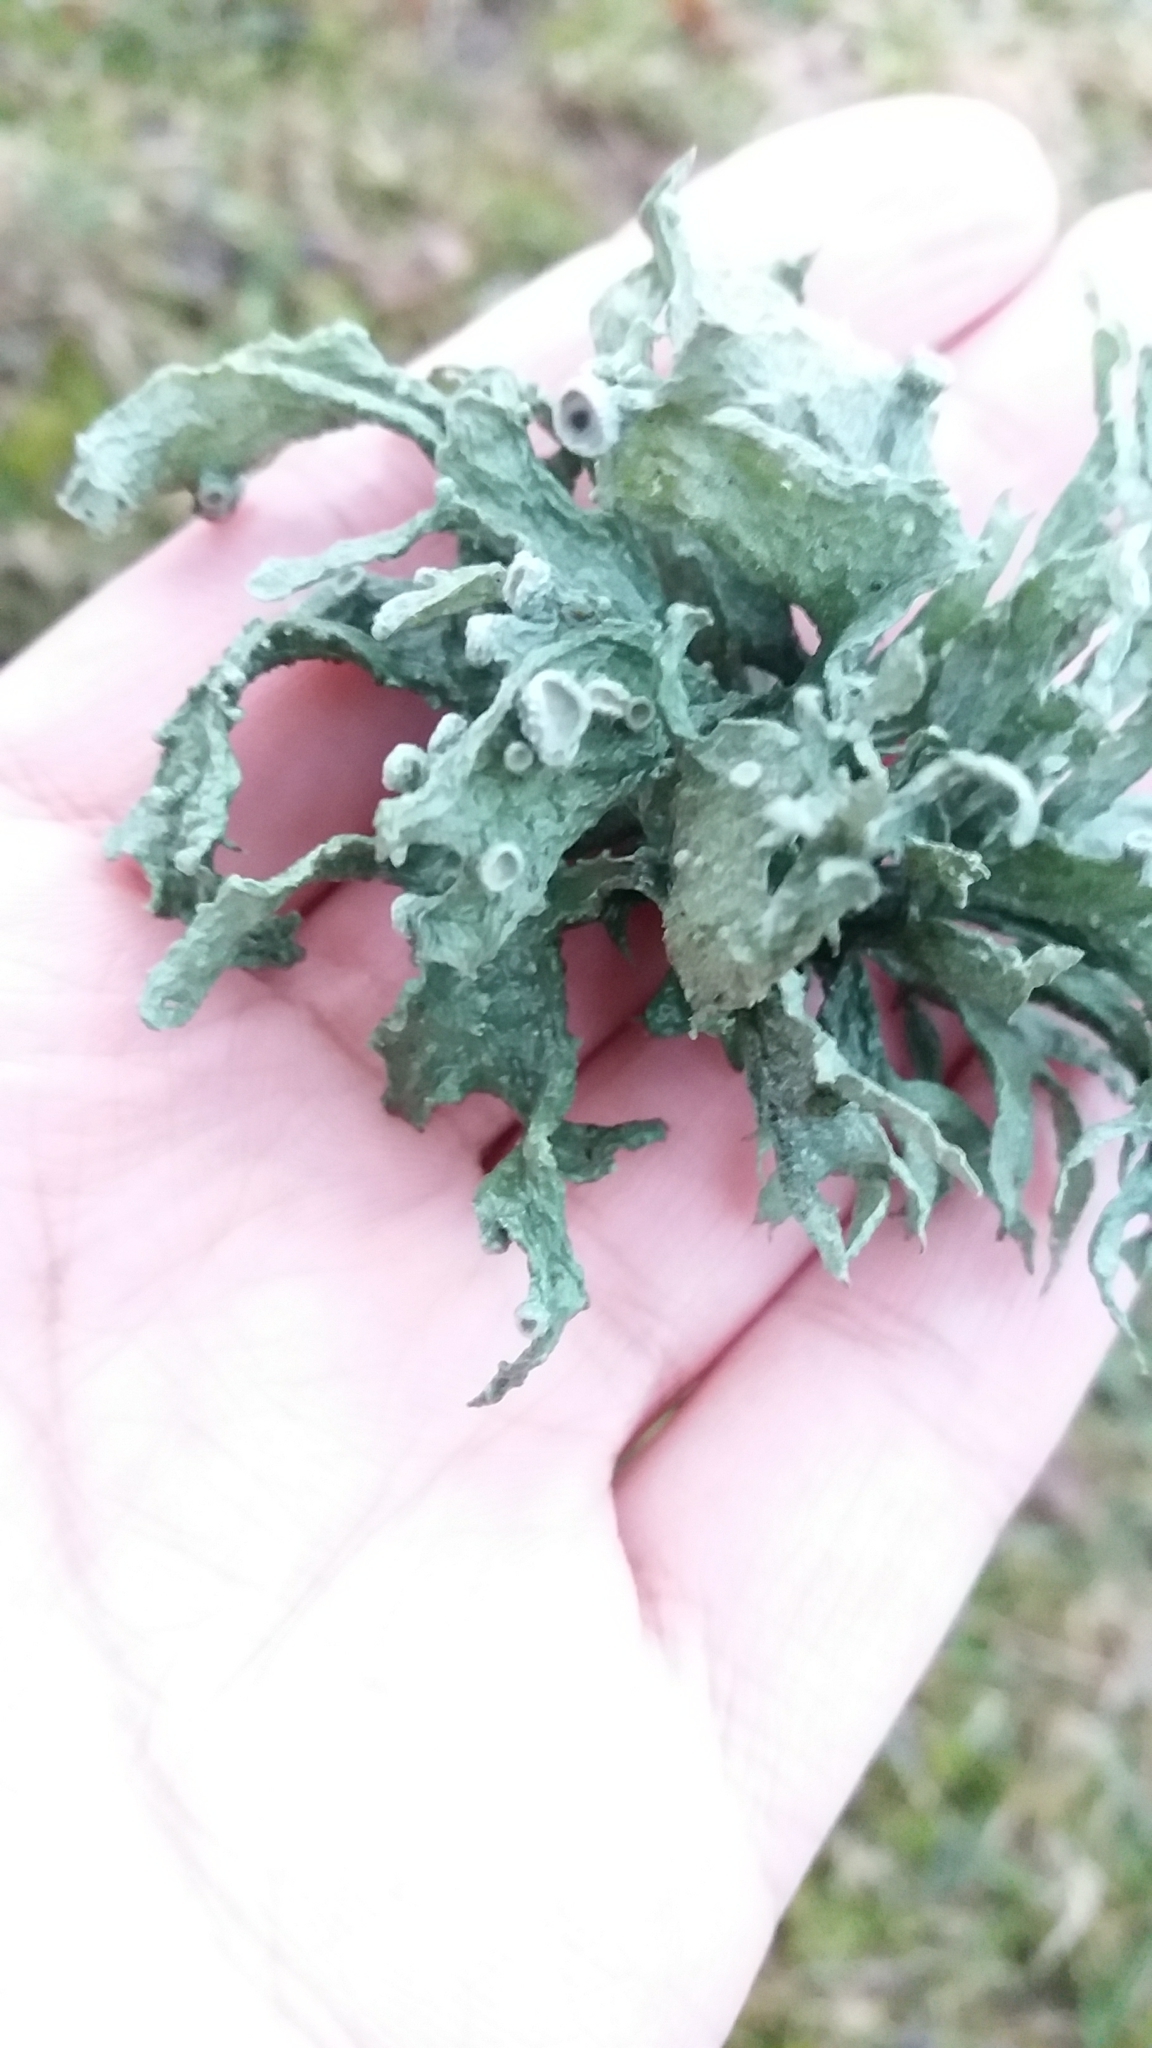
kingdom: Fungi
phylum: Ascomycota
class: Lecanoromycetes
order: Lecanorales
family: Ramalinaceae
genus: Ramalina
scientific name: Ramalina fraxinea
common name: Cartilage lichen
